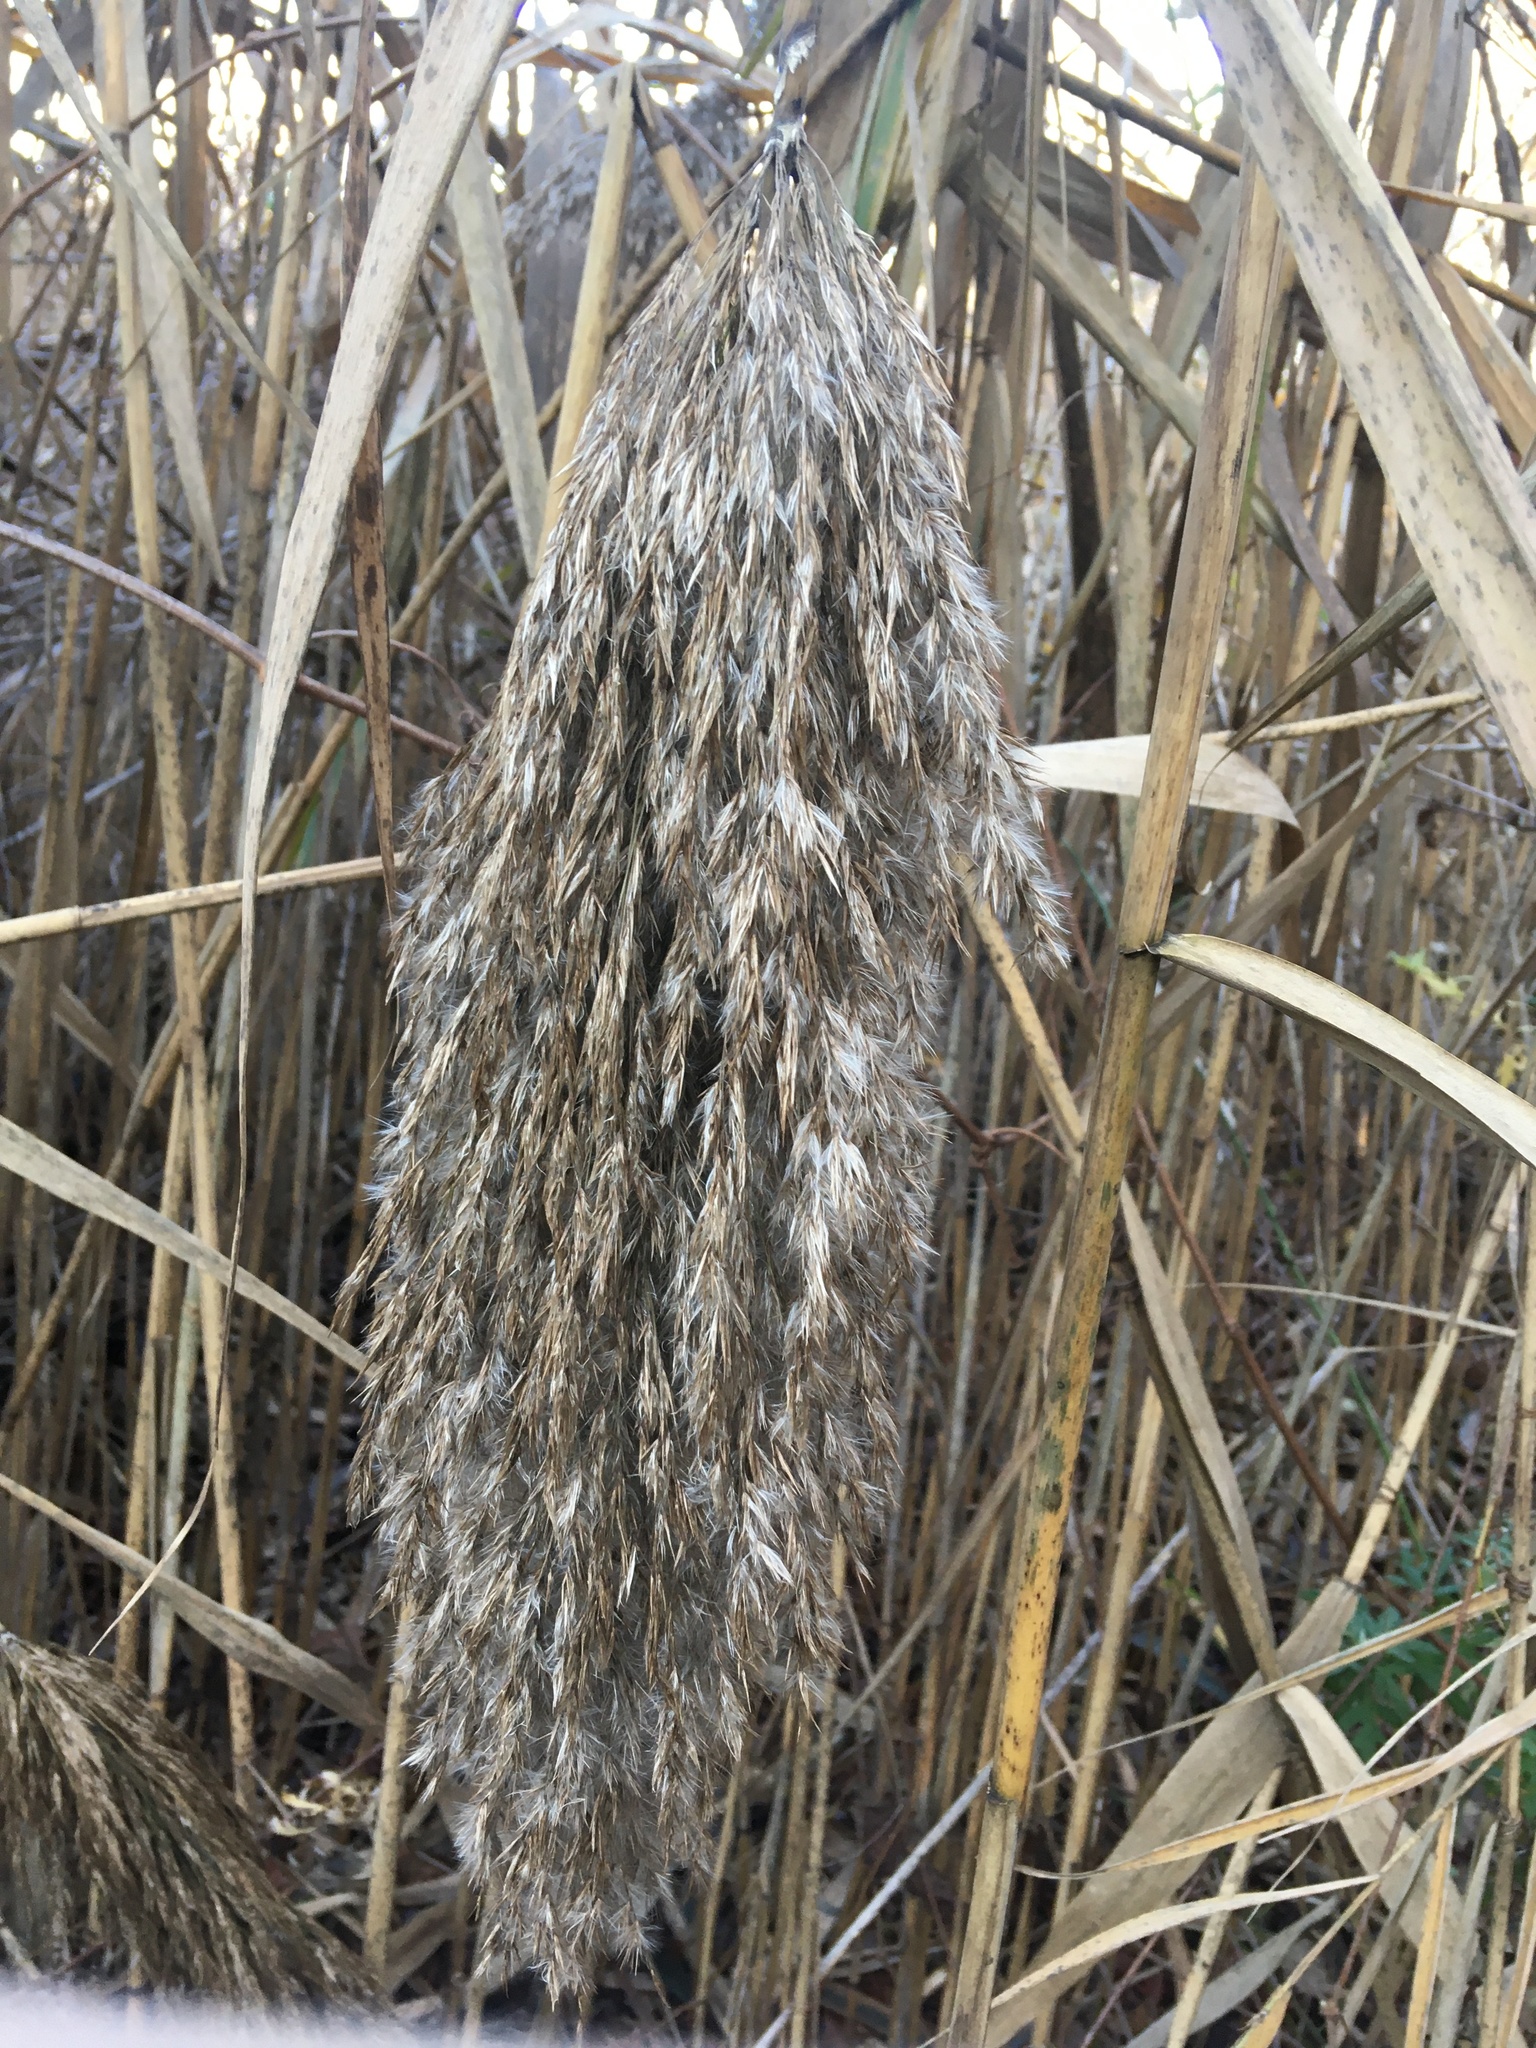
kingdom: Plantae
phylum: Tracheophyta
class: Liliopsida
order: Poales
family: Poaceae
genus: Phragmites
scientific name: Phragmites australis
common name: Common reed
